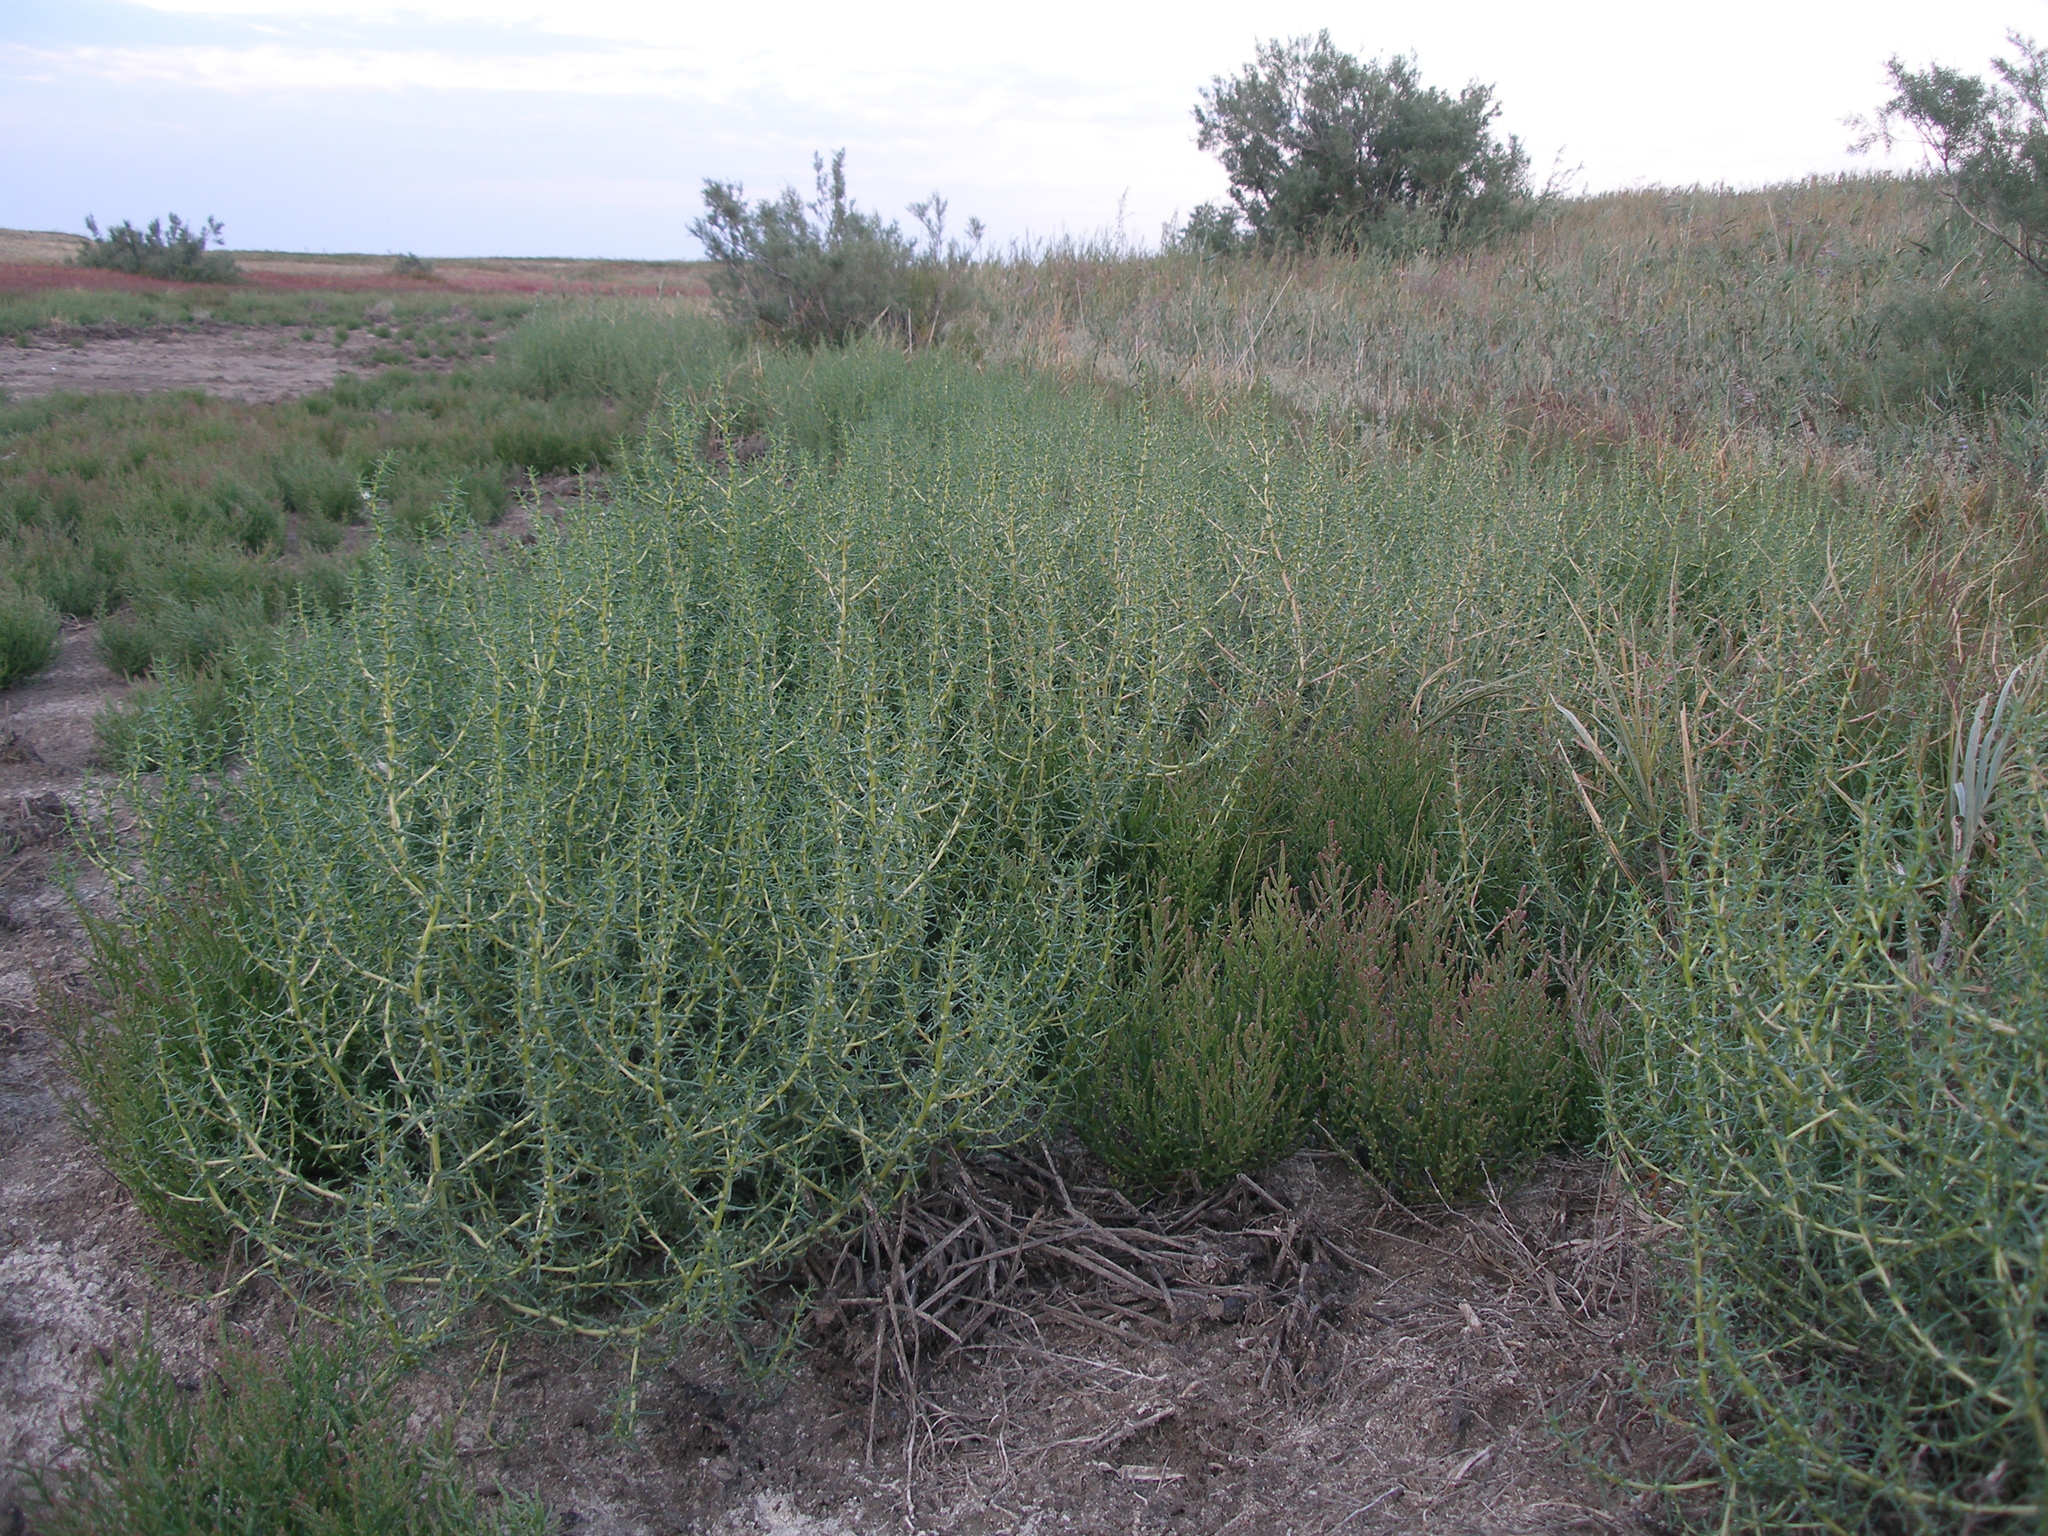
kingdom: Plantae
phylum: Tracheophyta
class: Magnoliopsida
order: Caryophyllales
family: Amaranthaceae
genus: Salsola
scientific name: Salsola tragus
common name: Prickly russian thistle
